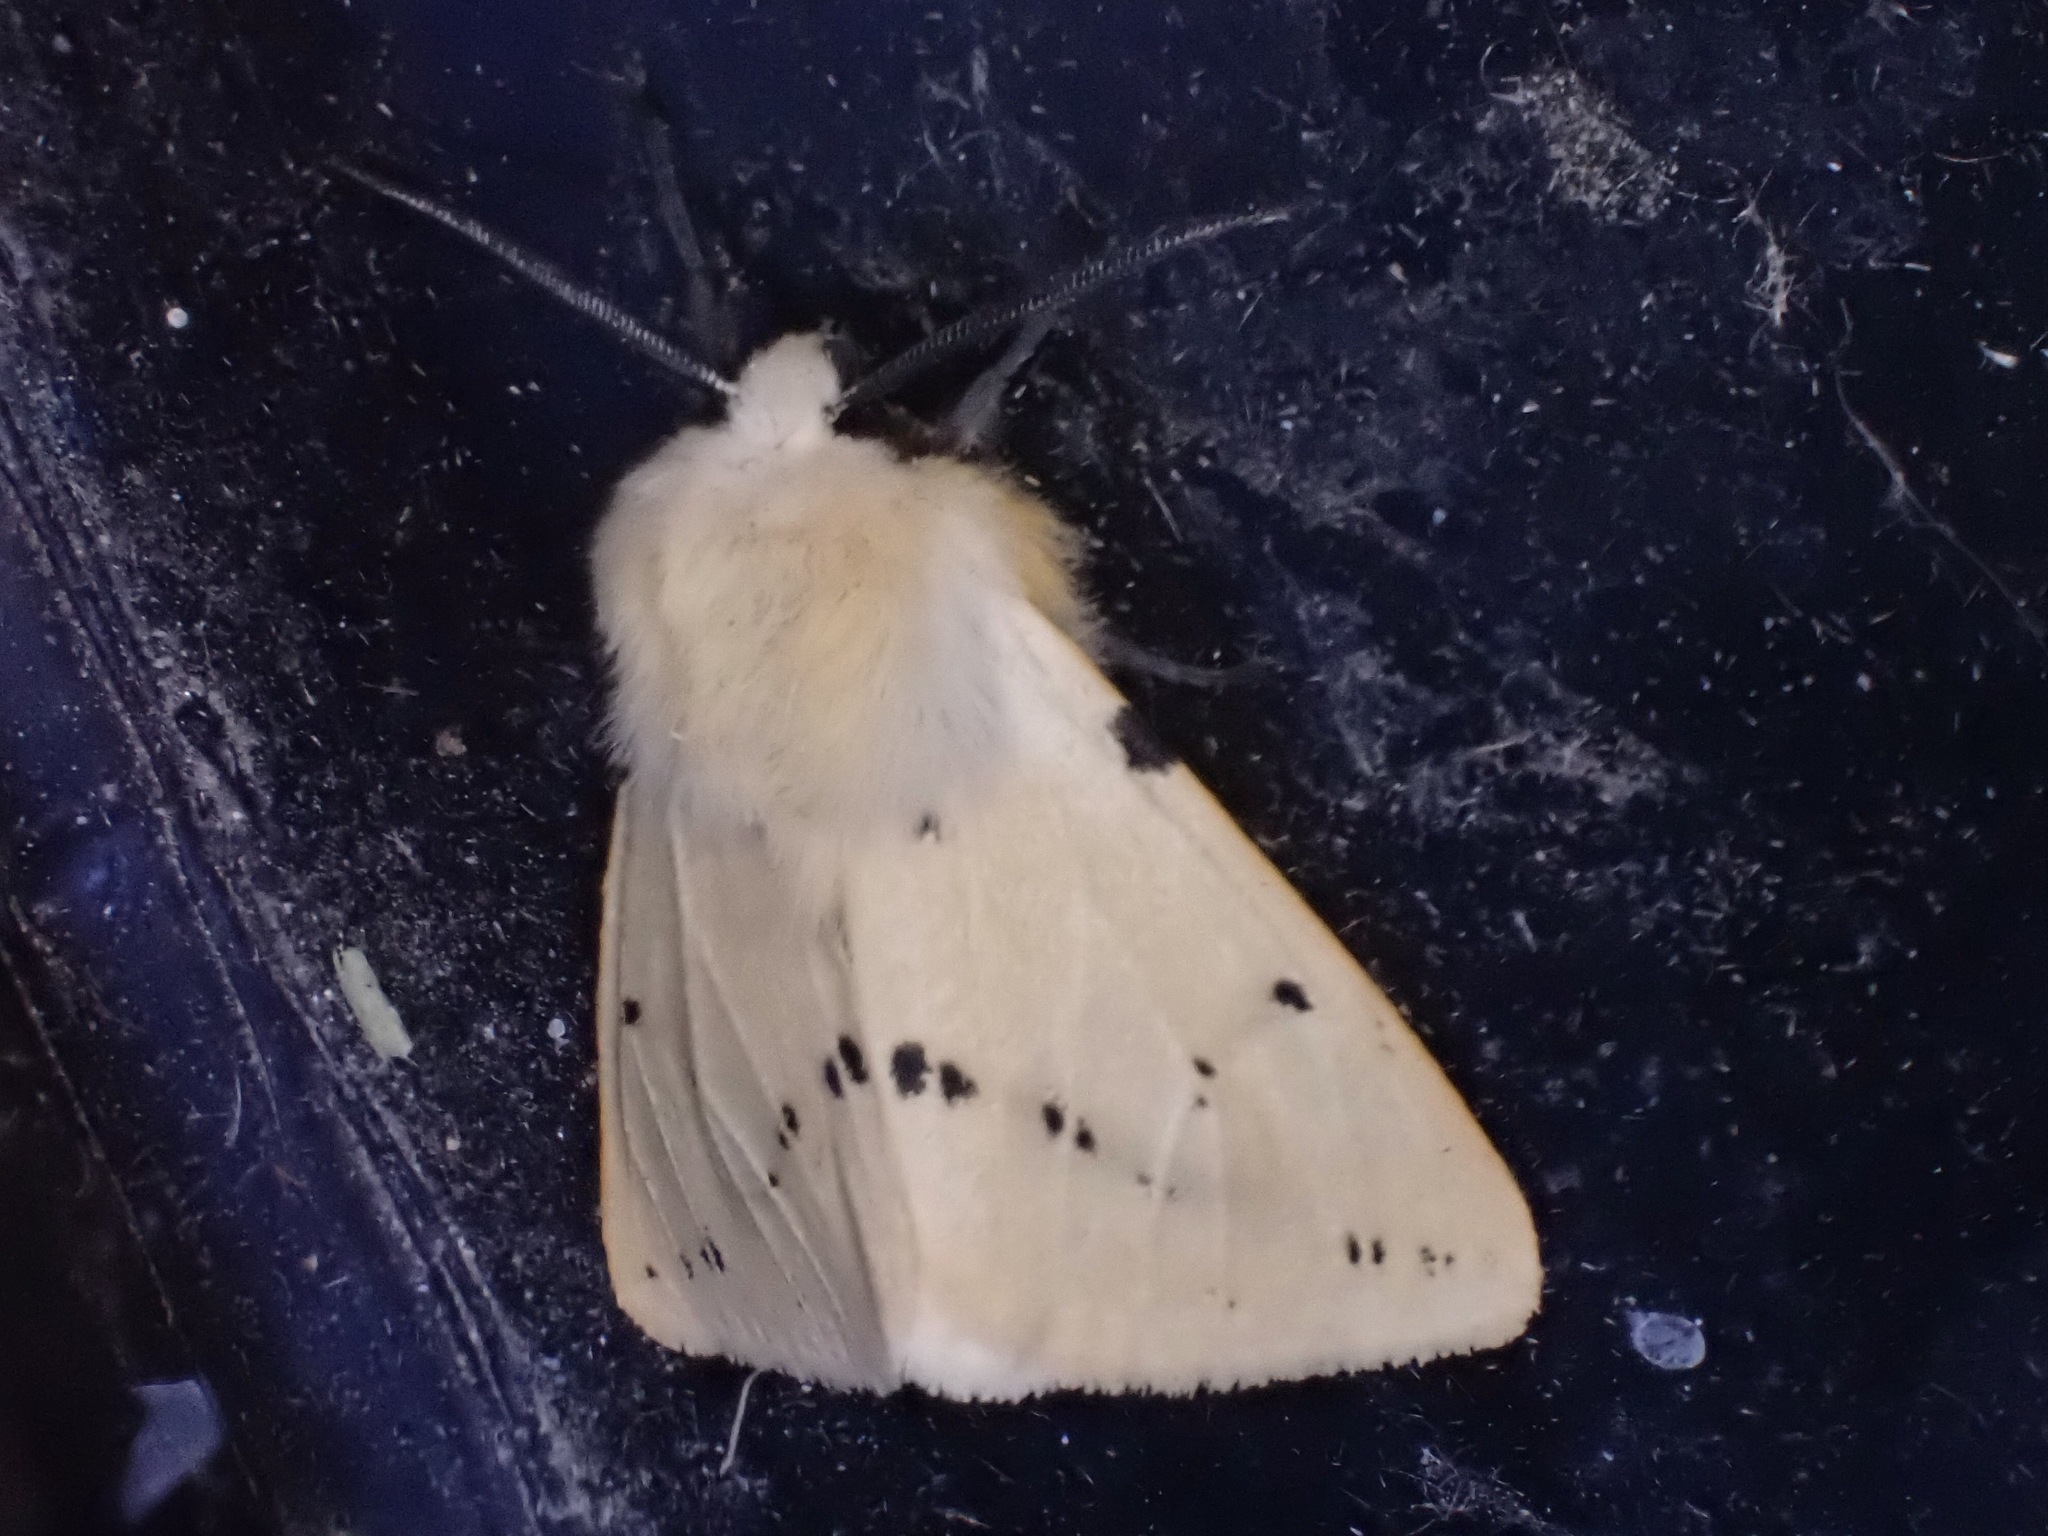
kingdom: Animalia
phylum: Arthropoda
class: Insecta
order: Lepidoptera
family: Erebidae
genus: Spilarctia
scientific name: Spilarctia lutea
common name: Buff ermine
